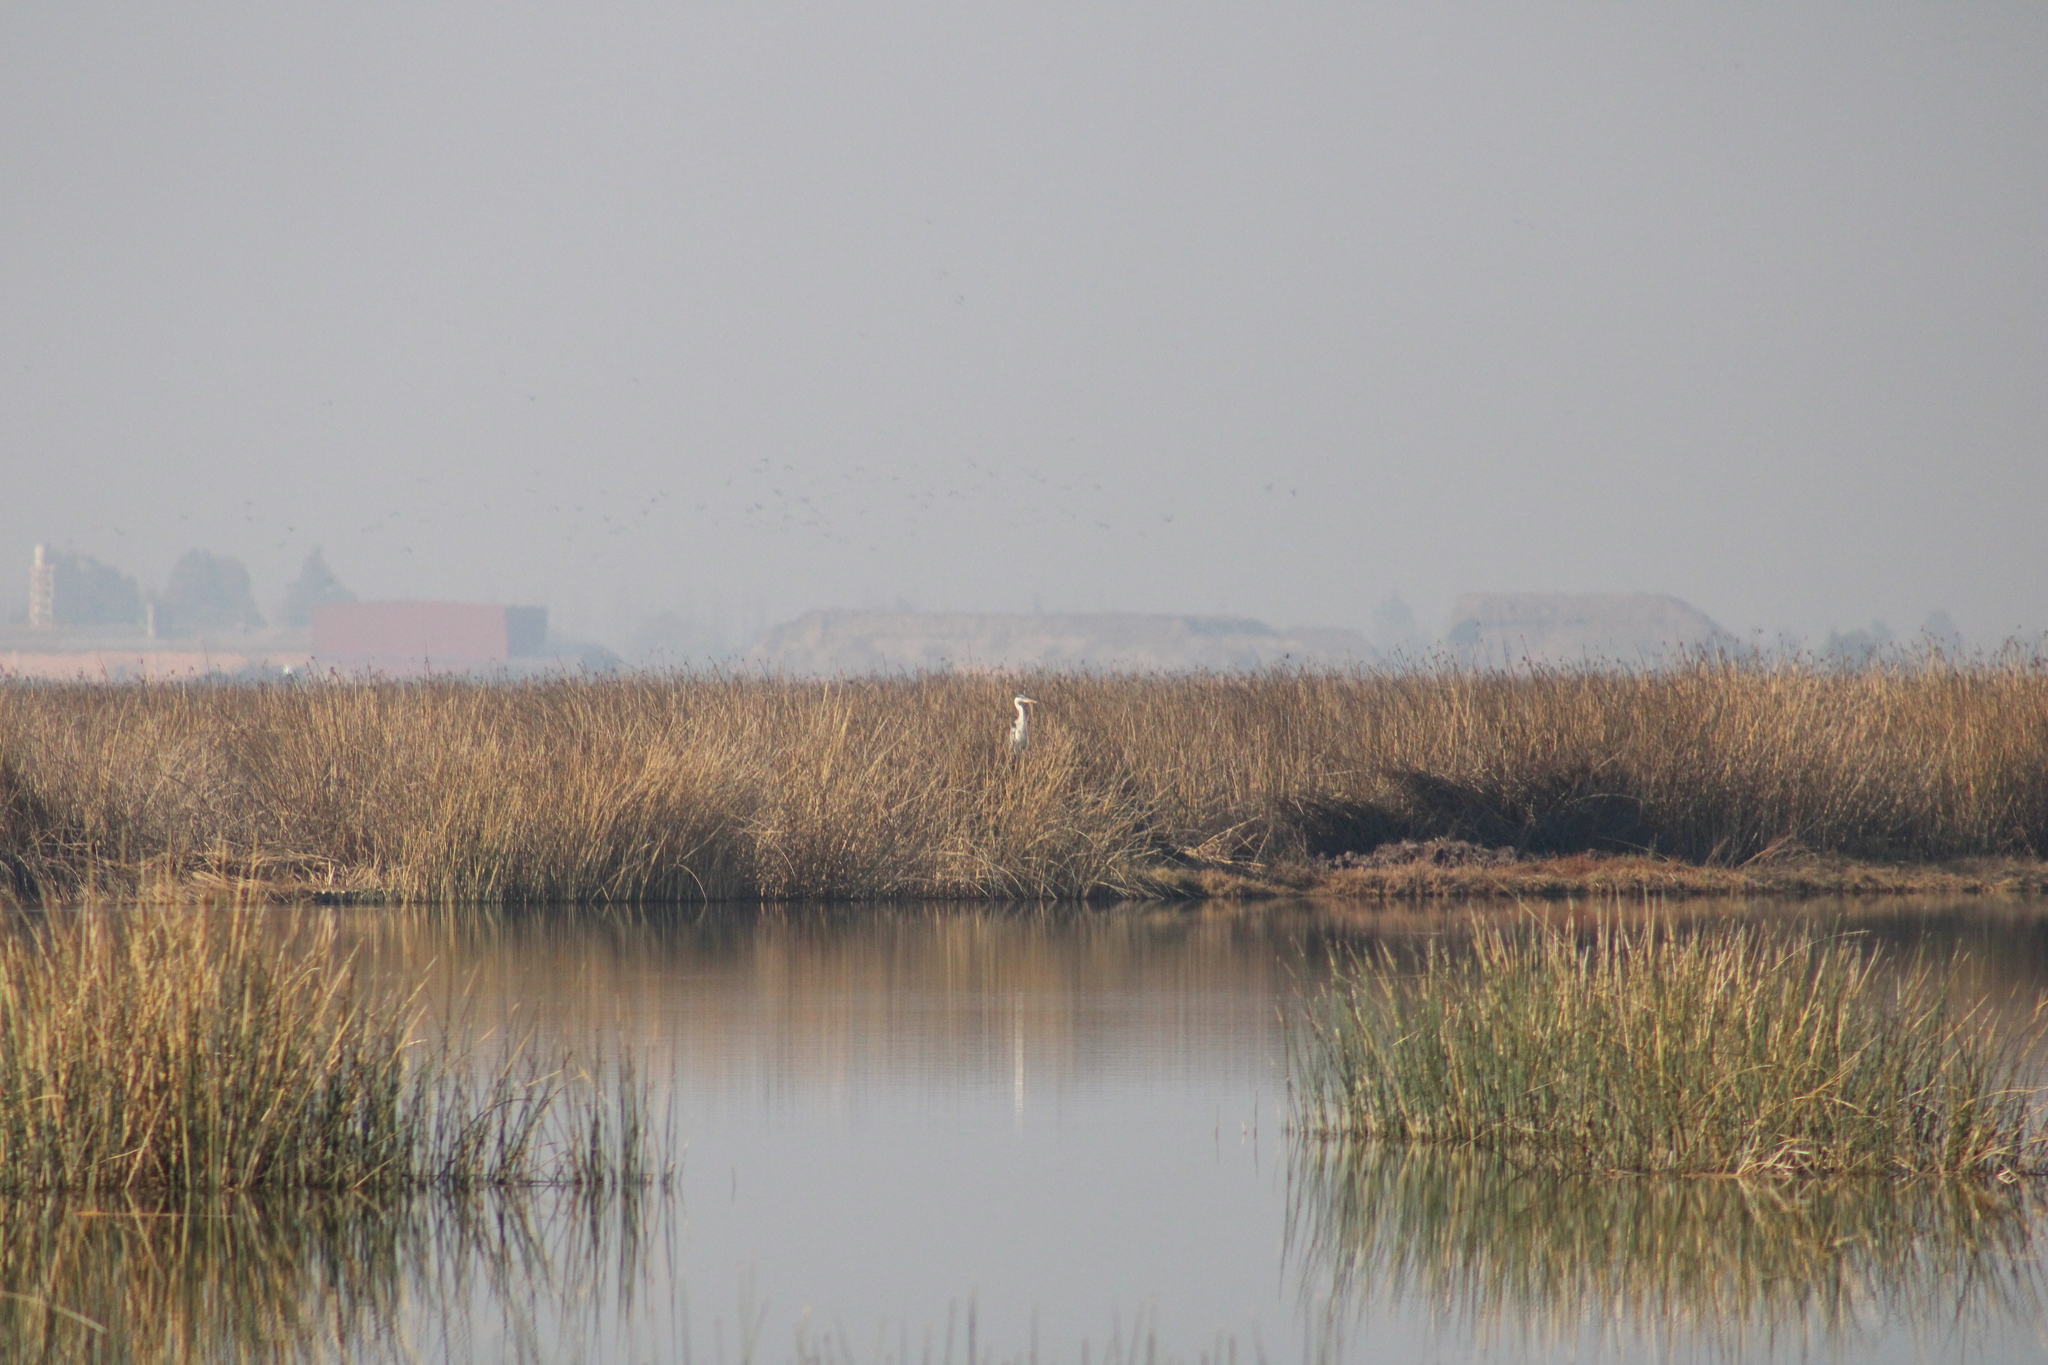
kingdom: Animalia
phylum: Chordata
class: Aves
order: Pelecaniformes
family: Ardeidae
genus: Ardea
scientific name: Ardea cocoi
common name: Cocoi heron
